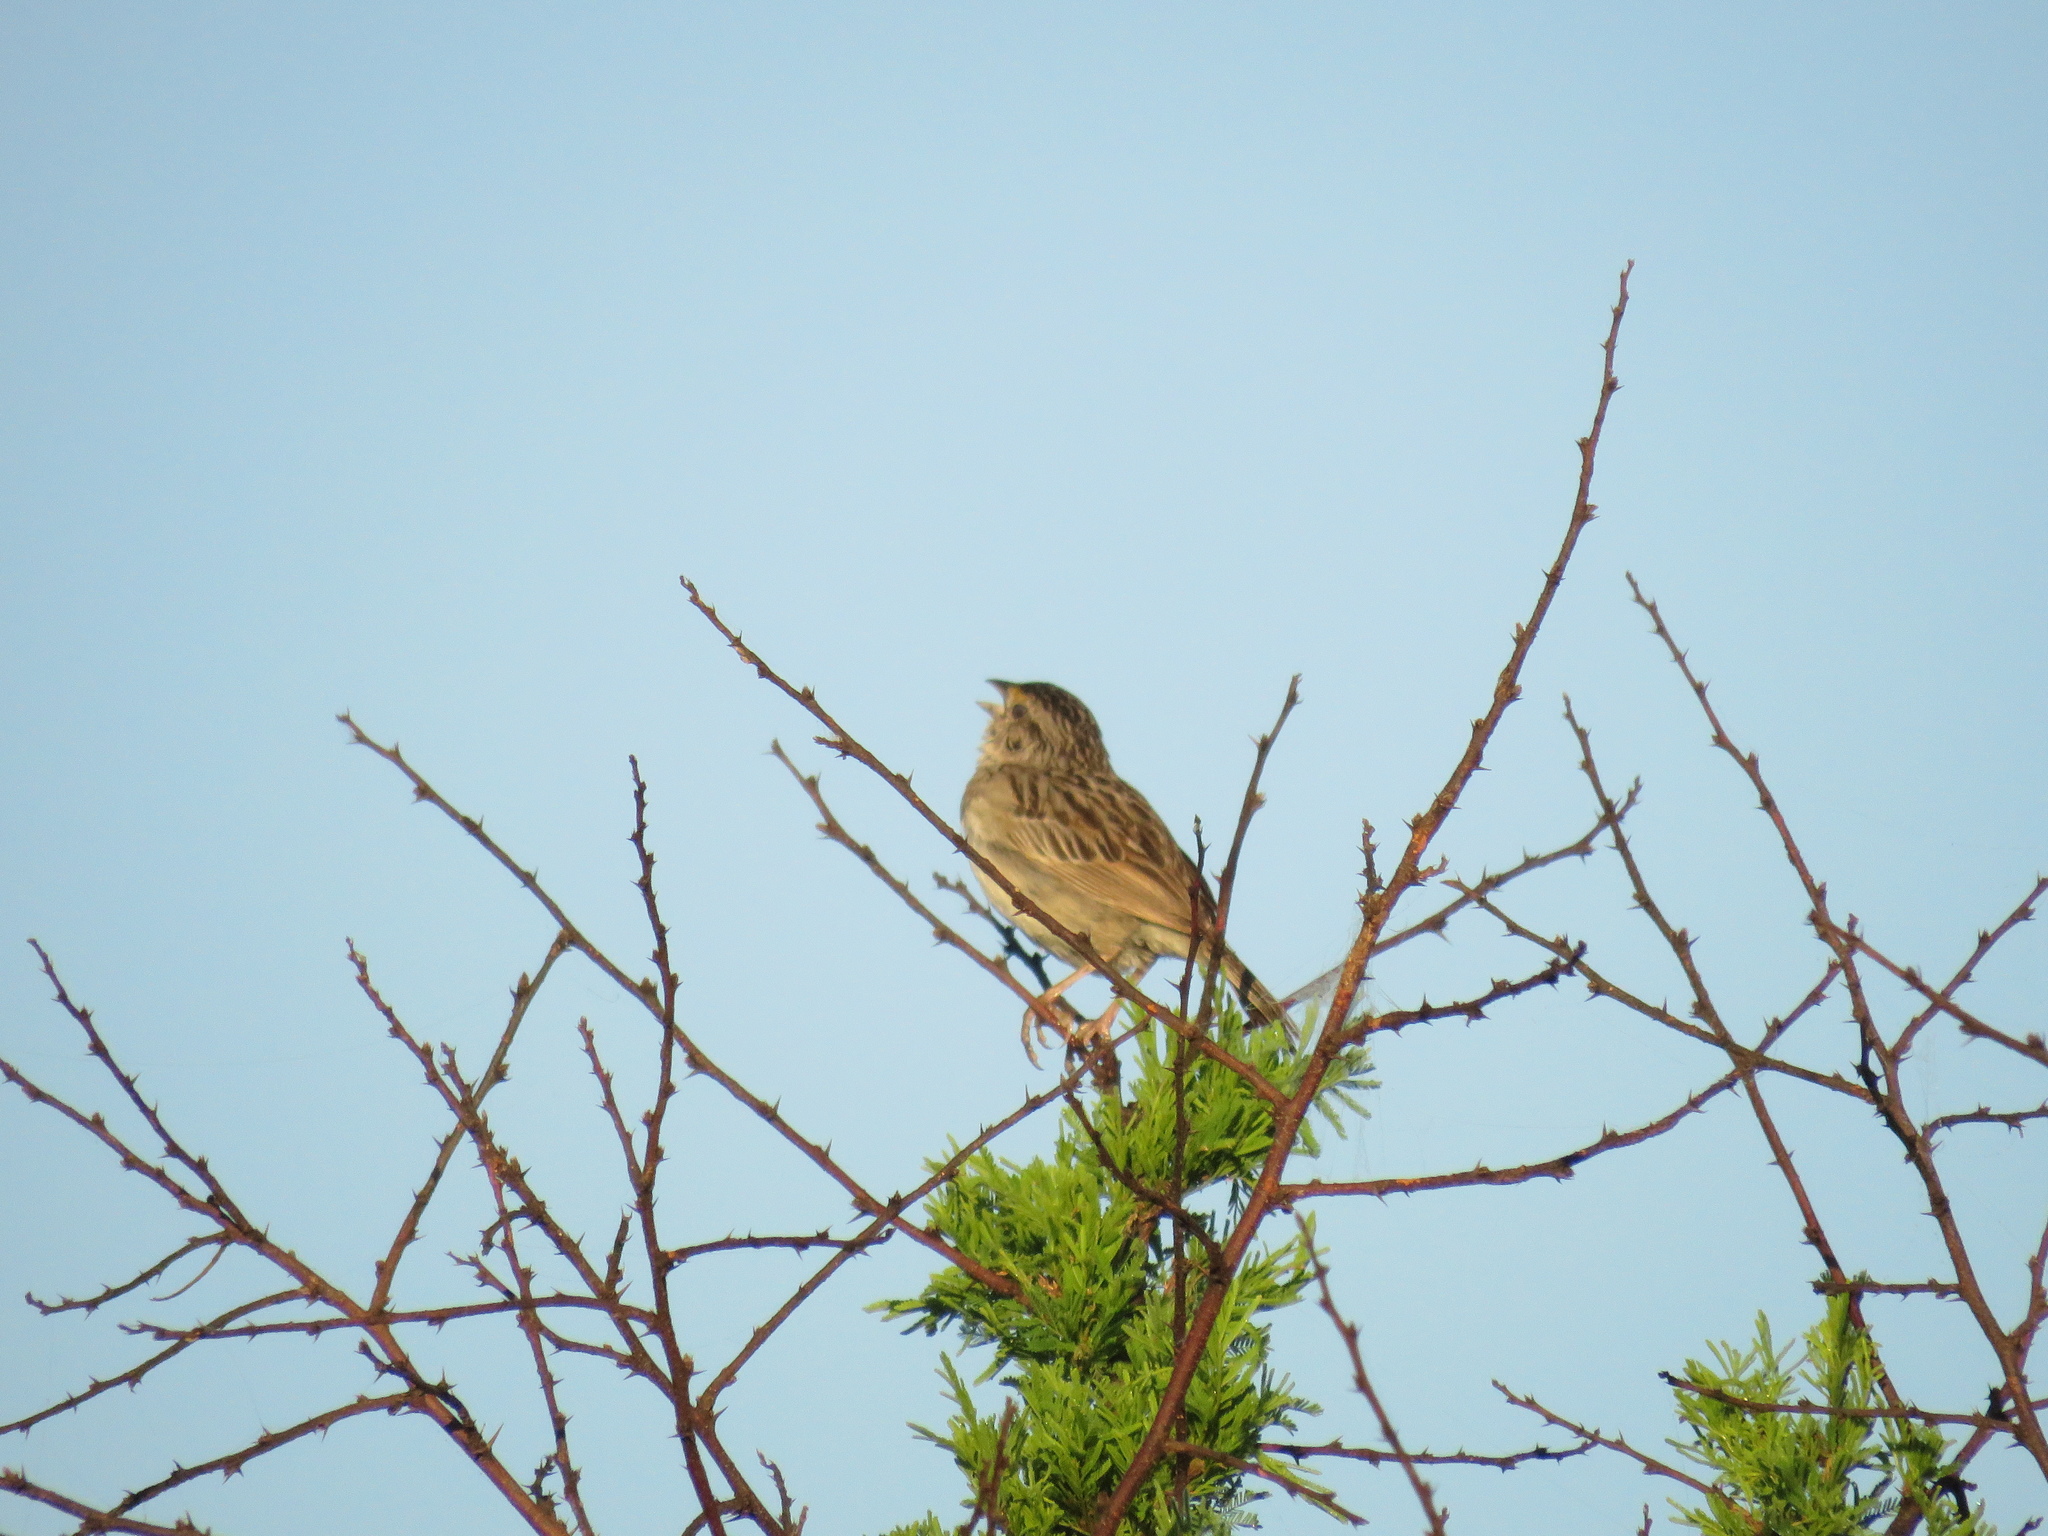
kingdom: Animalia
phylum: Chordata
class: Aves
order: Passeriformes
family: Passerellidae
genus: Ammodramus
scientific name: Ammodramus humeralis
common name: Grassland sparrow
